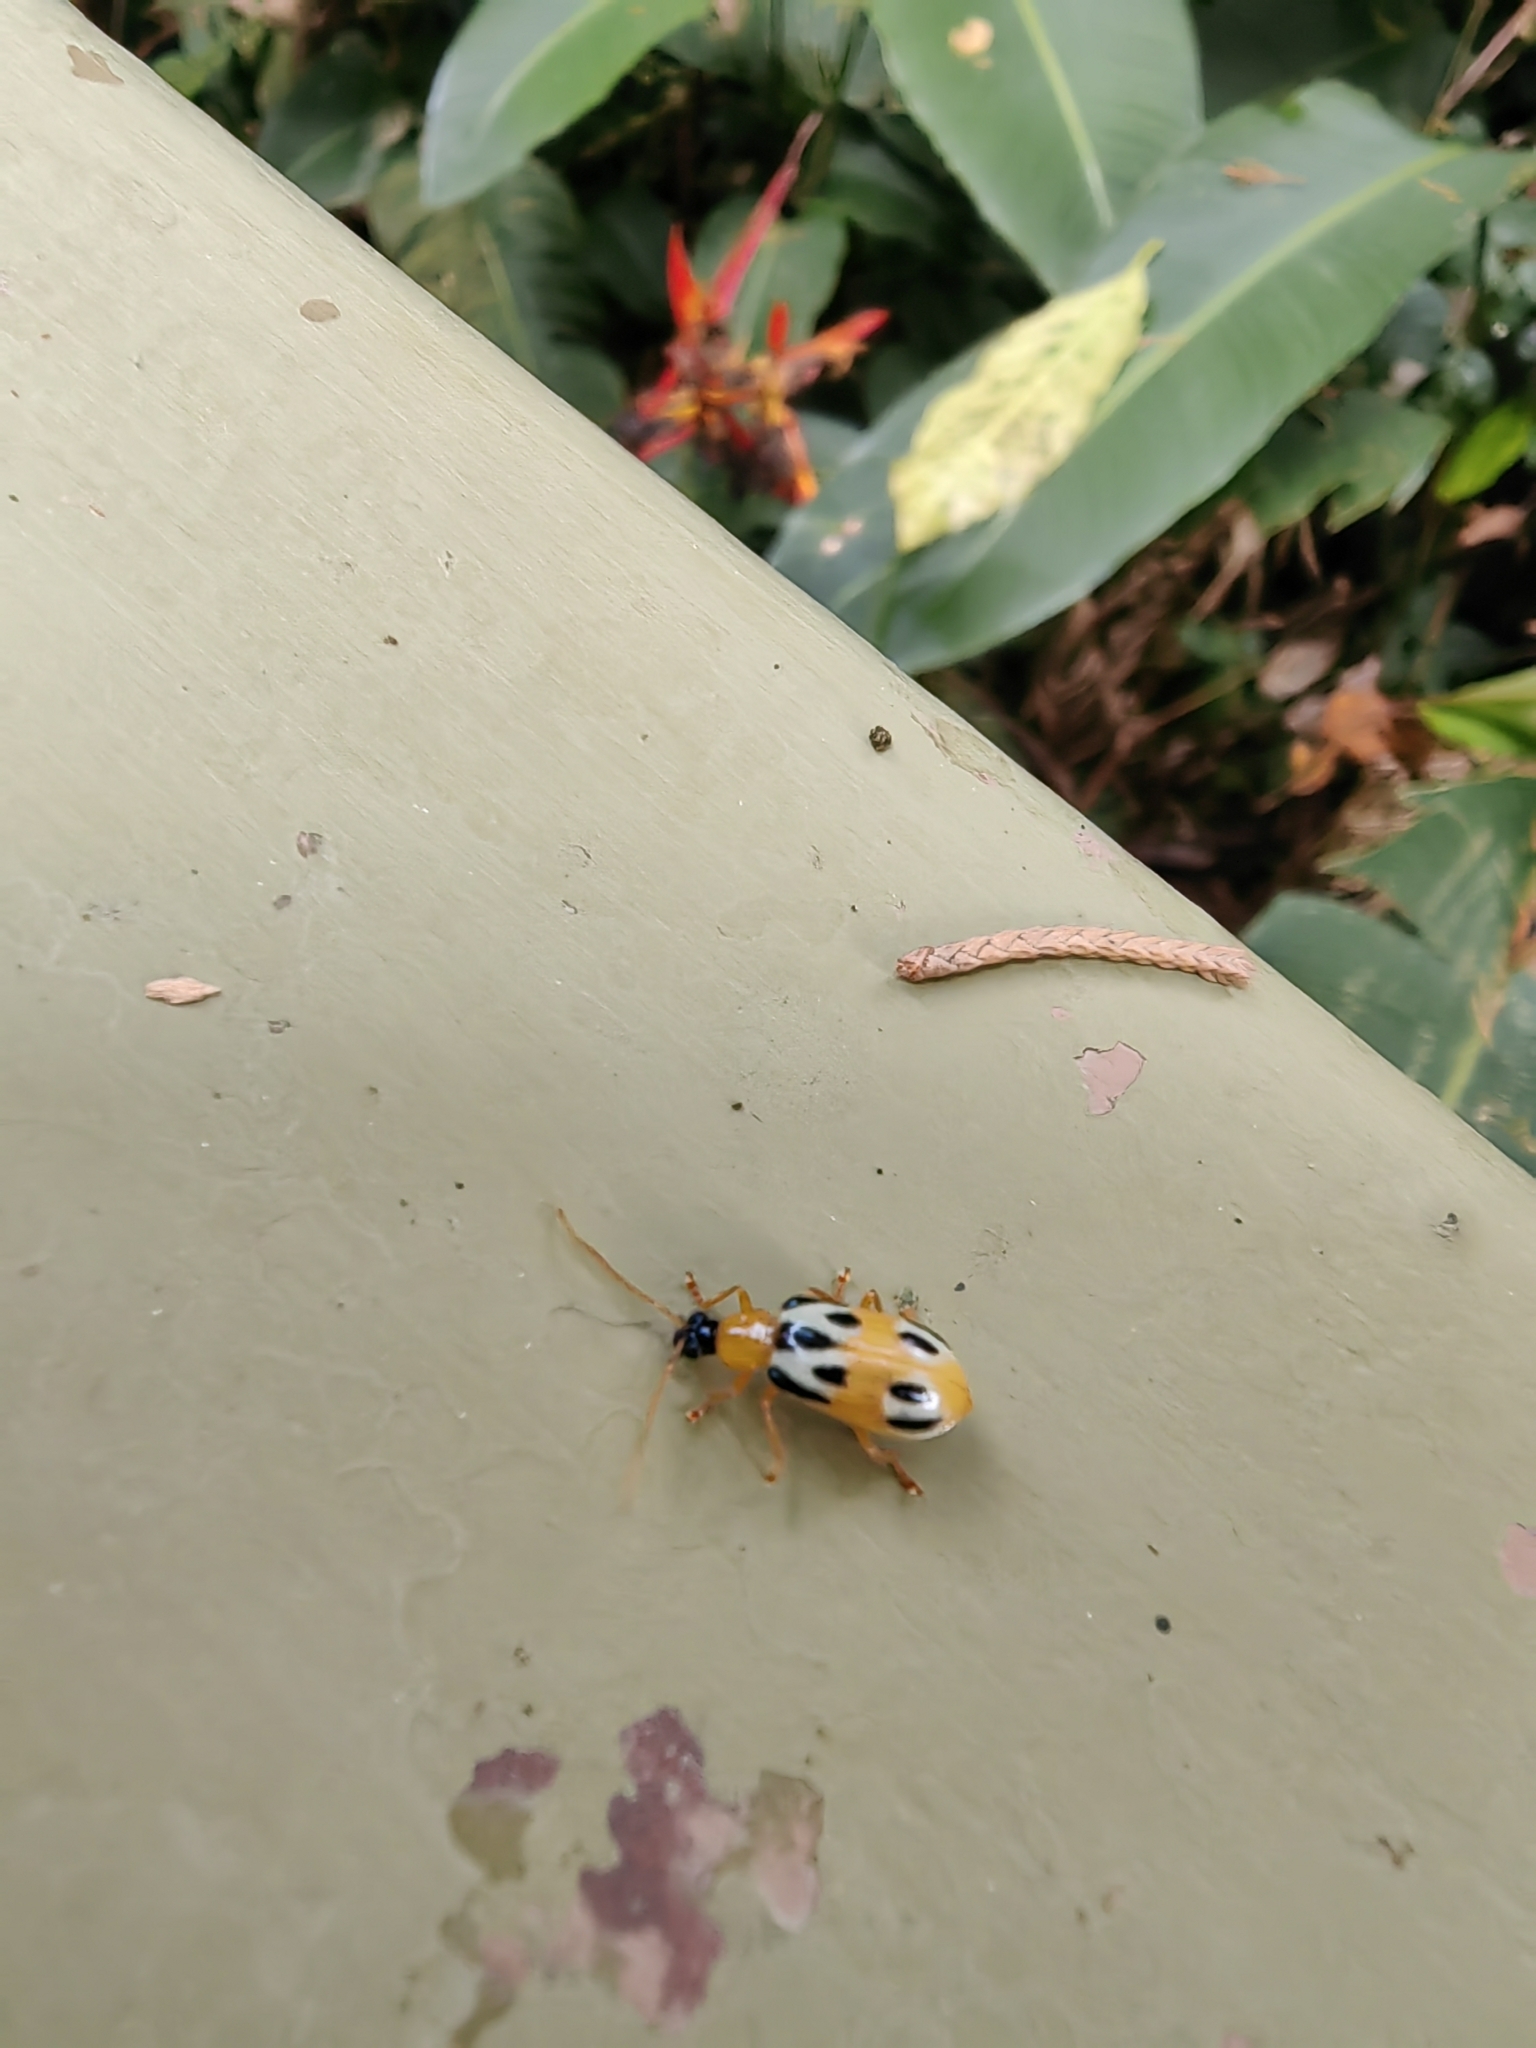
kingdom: Animalia
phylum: Arthropoda
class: Insecta
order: Coleoptera
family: Chrysomelidae
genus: Diabrotica
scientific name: Diabrotica
